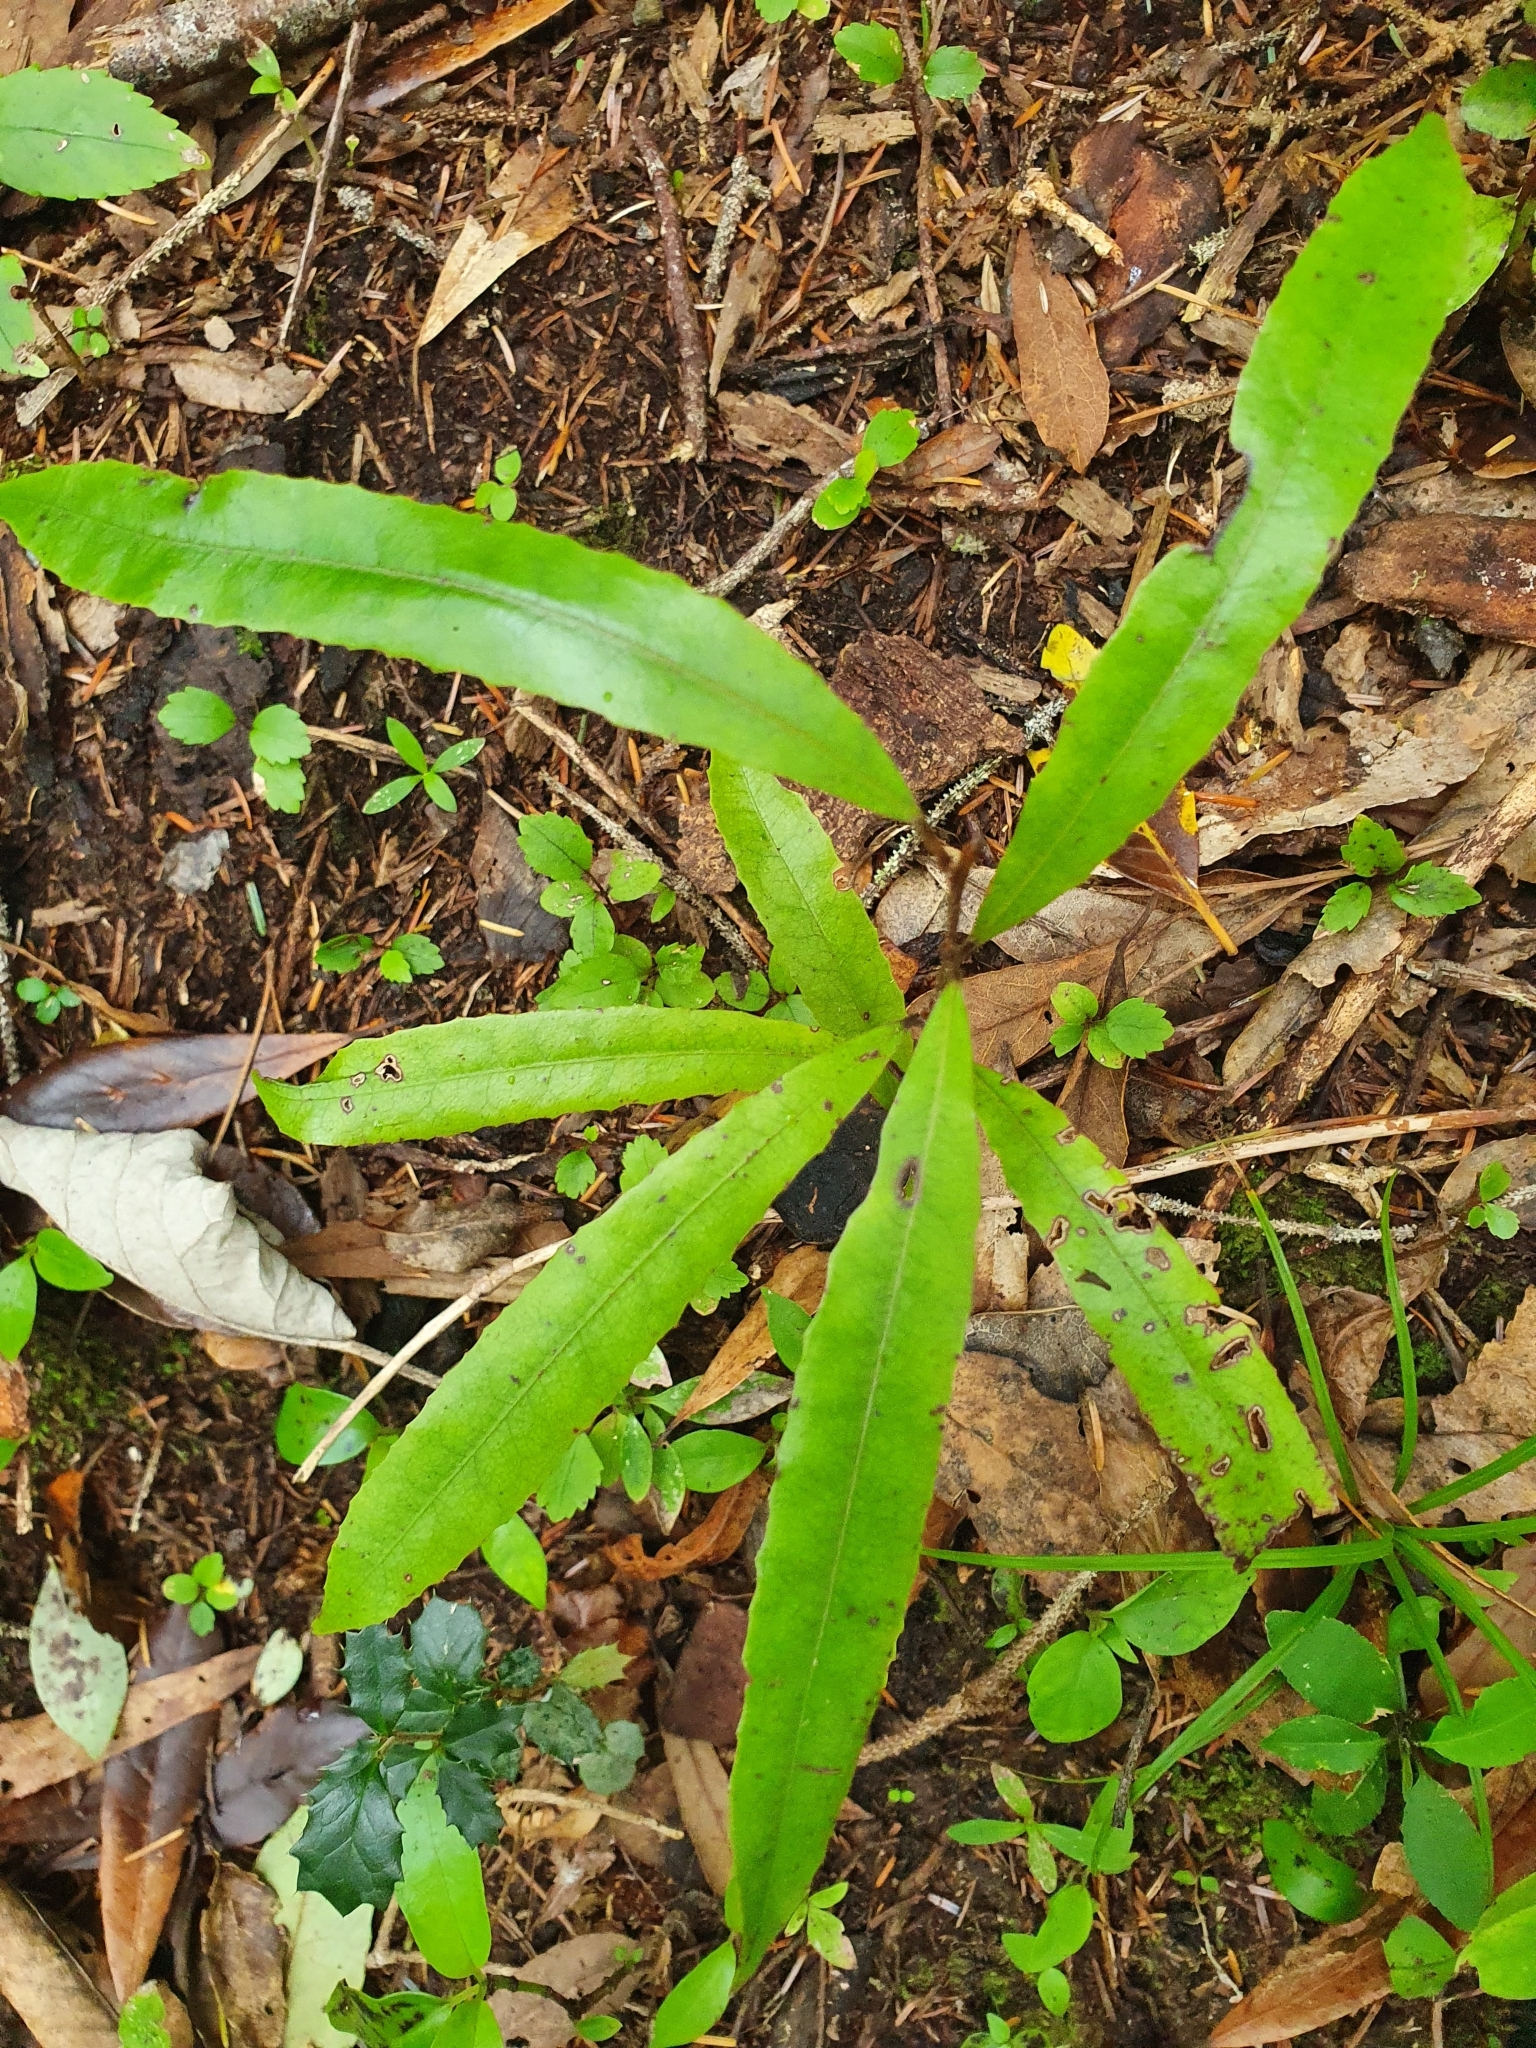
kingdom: Plantae
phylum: Tracheophyta
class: Magnoliopsida
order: Oxalidales
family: Elaeocarpaceae
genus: Elaeocarpus
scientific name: Elaeocarpus dentatus
